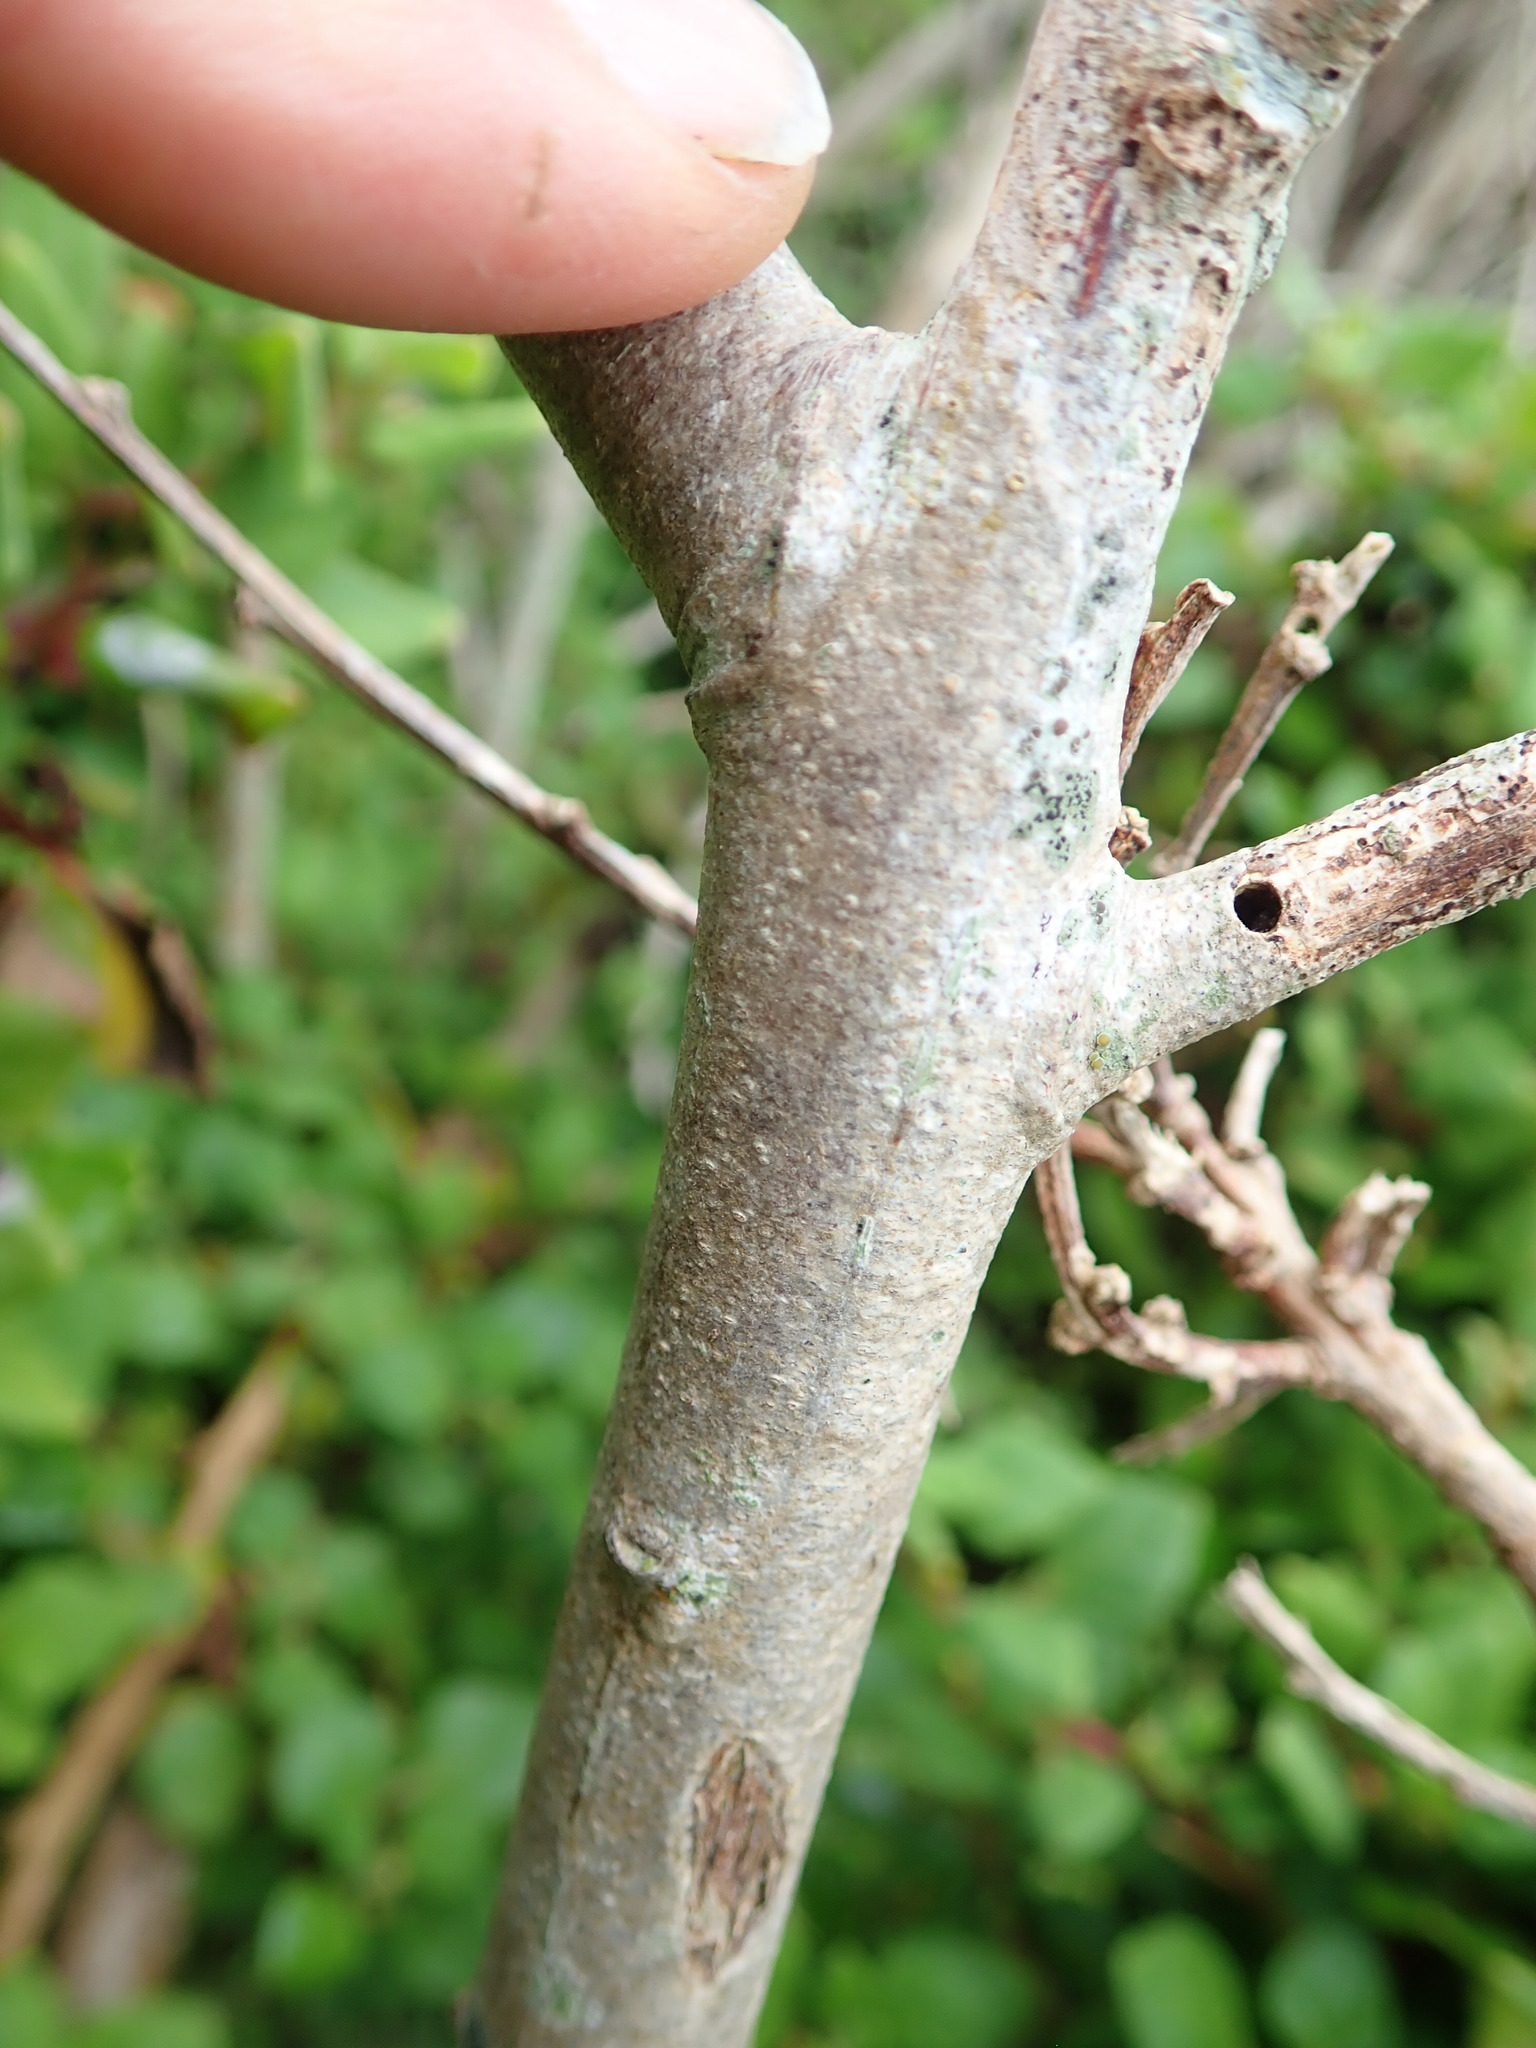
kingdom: Plantae
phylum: Tracheophyta
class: Magnoliopsida
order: Fabales
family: Fabaceae
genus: Acacia
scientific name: Acacia longifolia
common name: Sydney golden wattle
